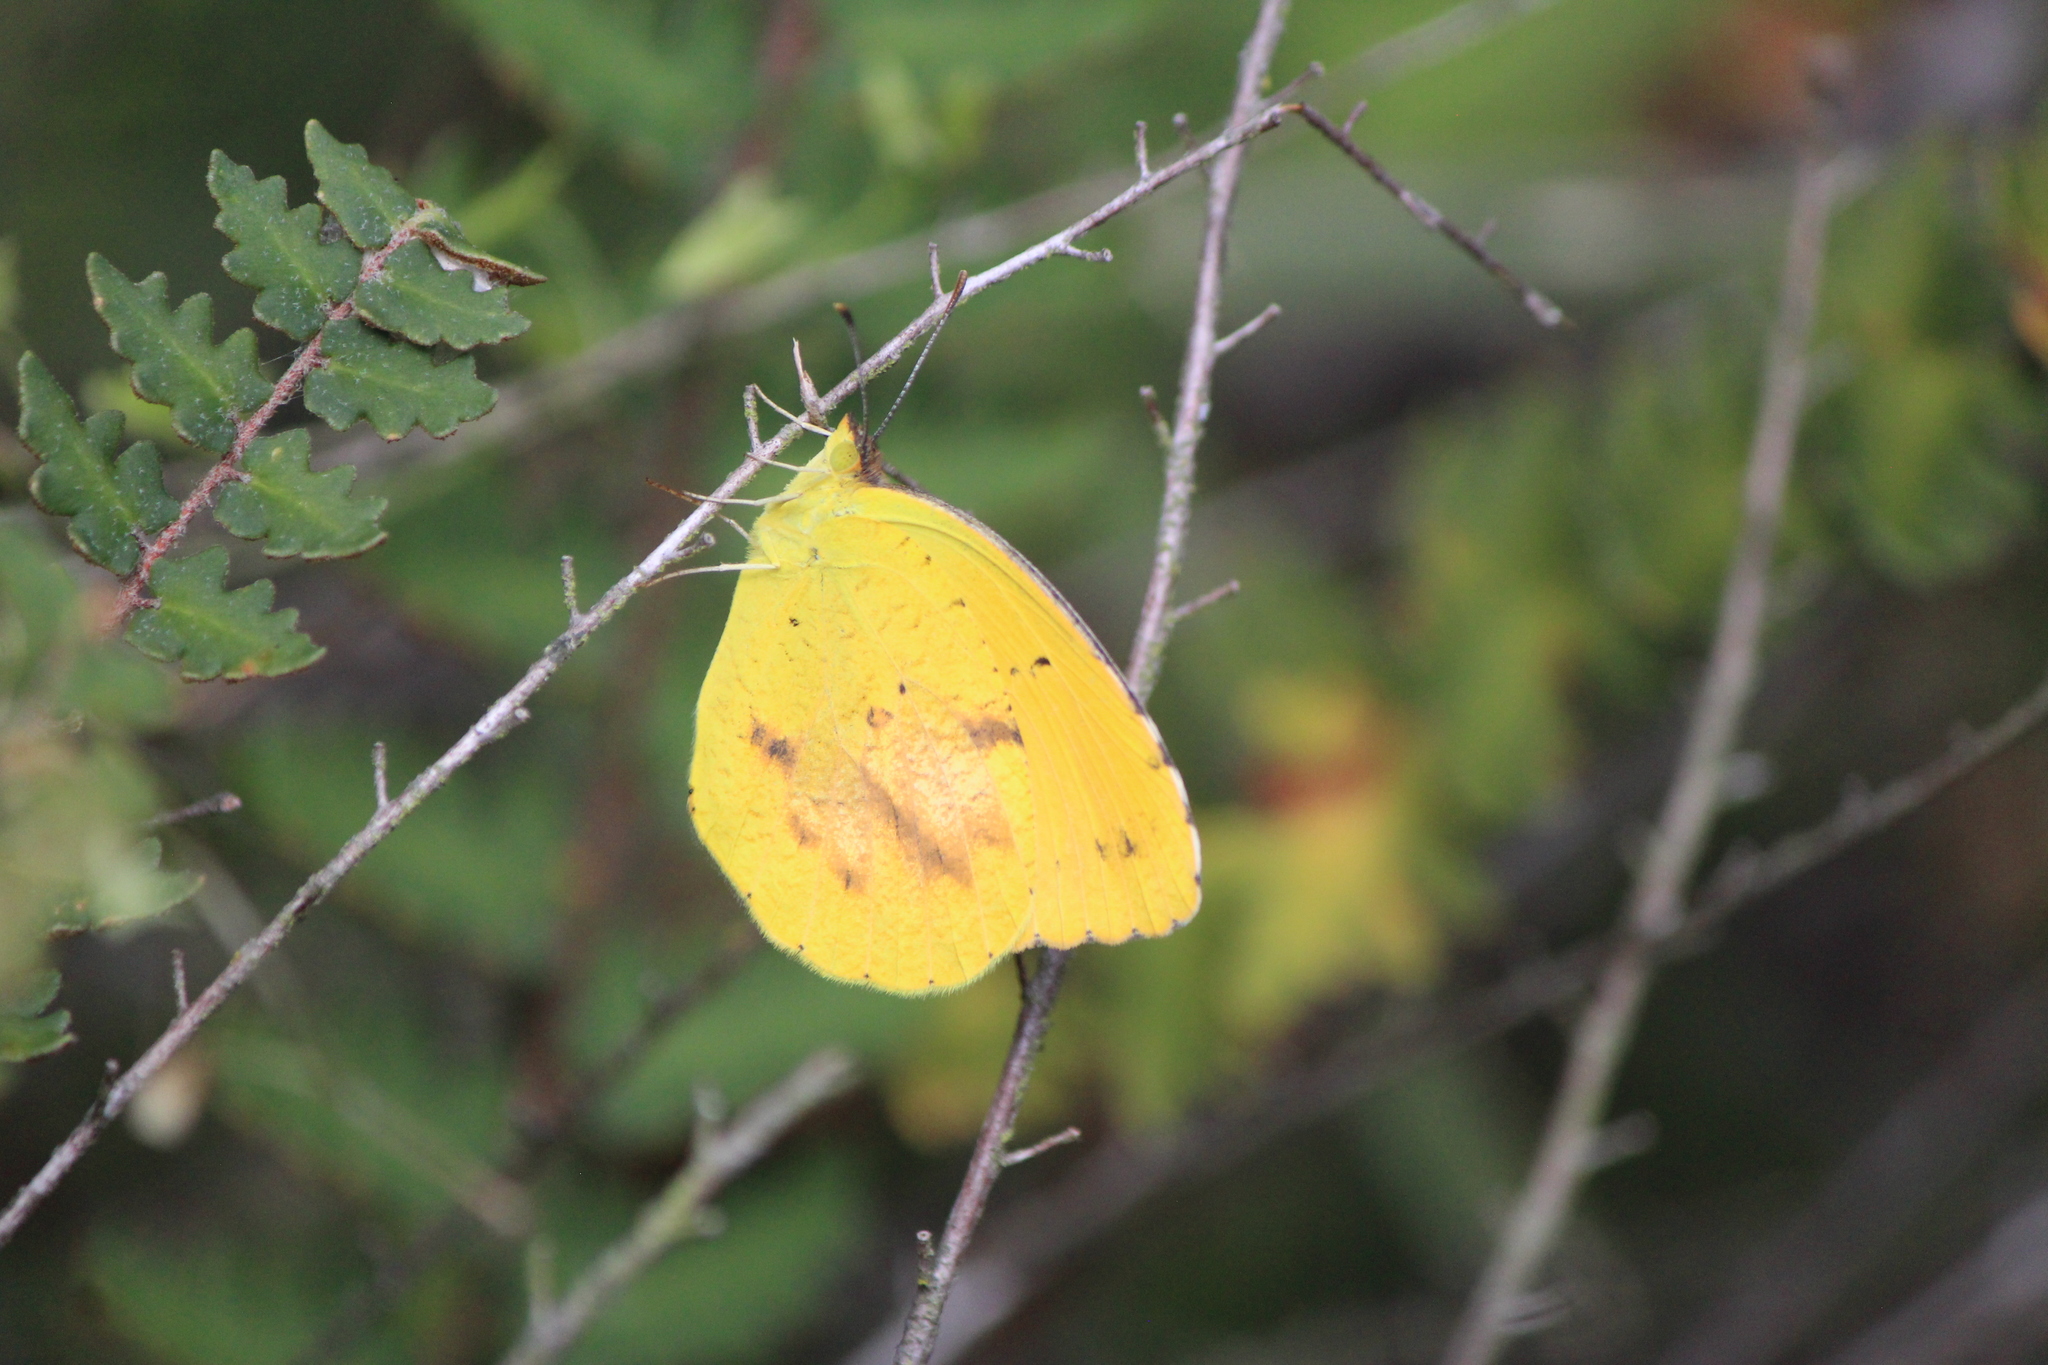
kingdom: Animalia
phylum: Arthropoda
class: Insecta
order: Lepidoptera
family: Pieridae
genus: Abaeis
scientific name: Abaeis nicippe
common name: Sleepy orange
